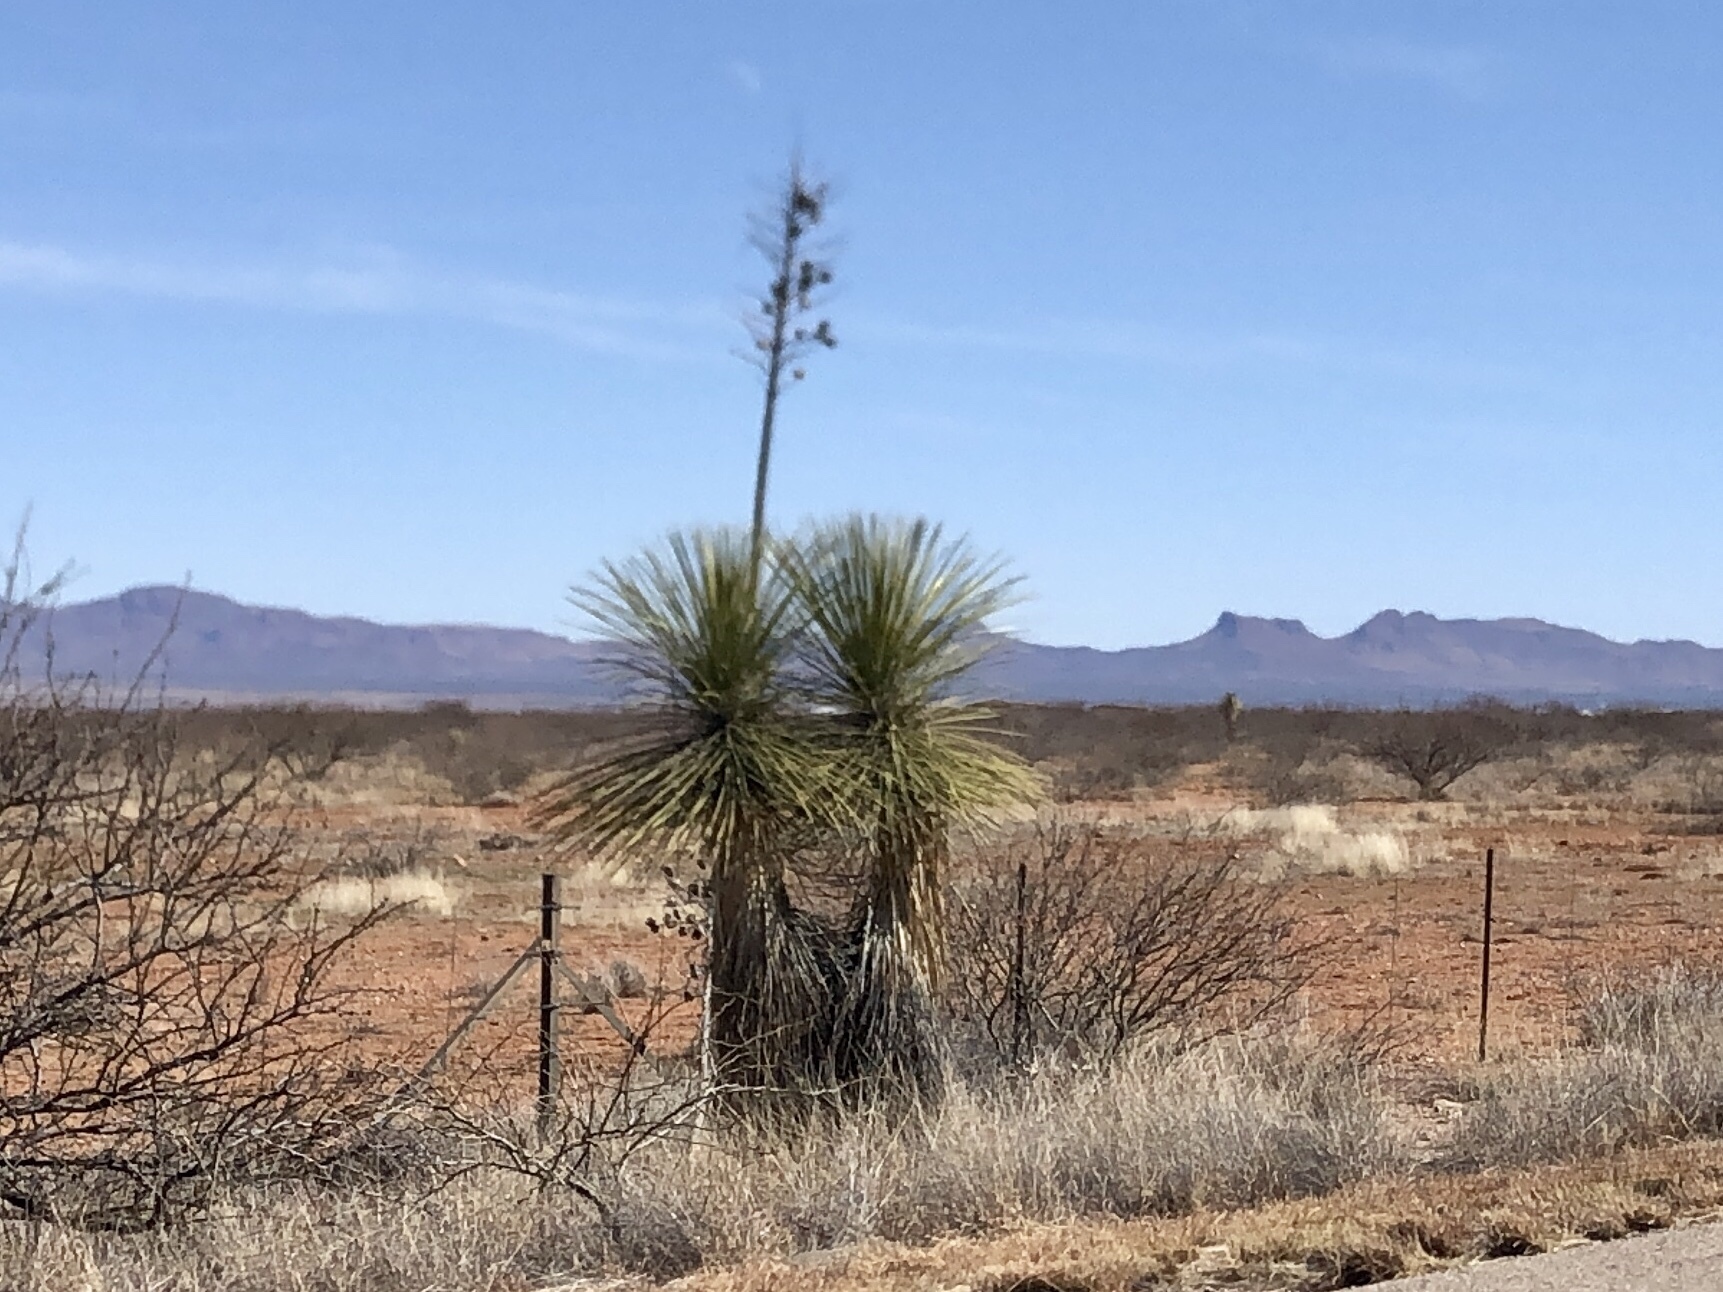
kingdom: Plantae
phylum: Tracheophyta
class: Liliopsida
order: Asparagales
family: Asparagaceae
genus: Yucca
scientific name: Yucca elata
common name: Palmella
